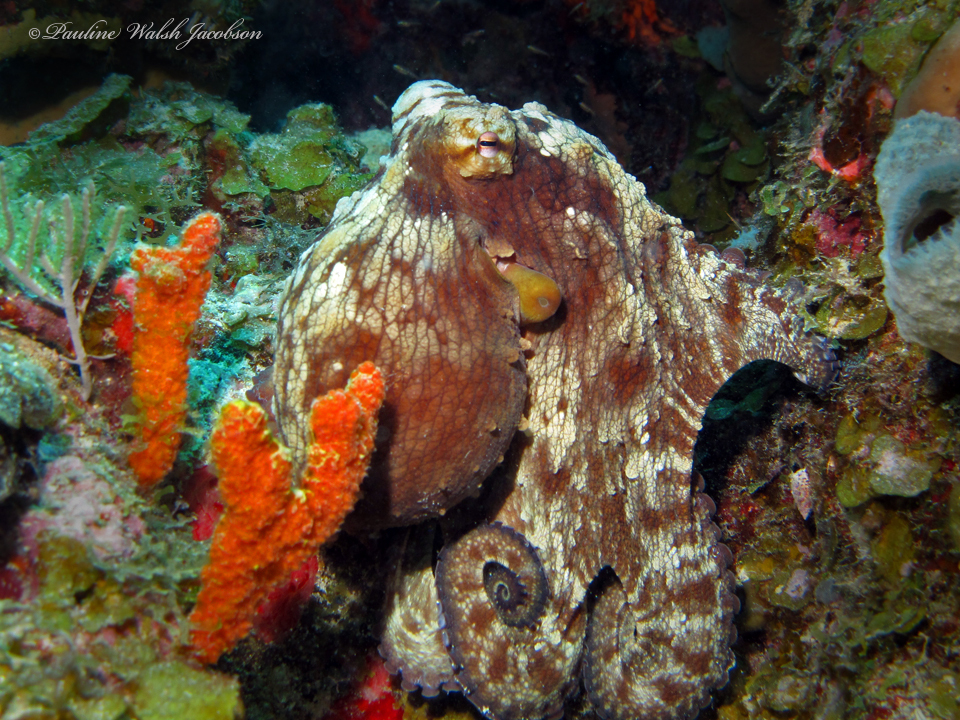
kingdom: Animalia
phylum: Mollusca
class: Cephalopoda
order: Octopoda
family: Octopodidae
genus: Octopus
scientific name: Octopus insularis
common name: Brazil reef octopus
